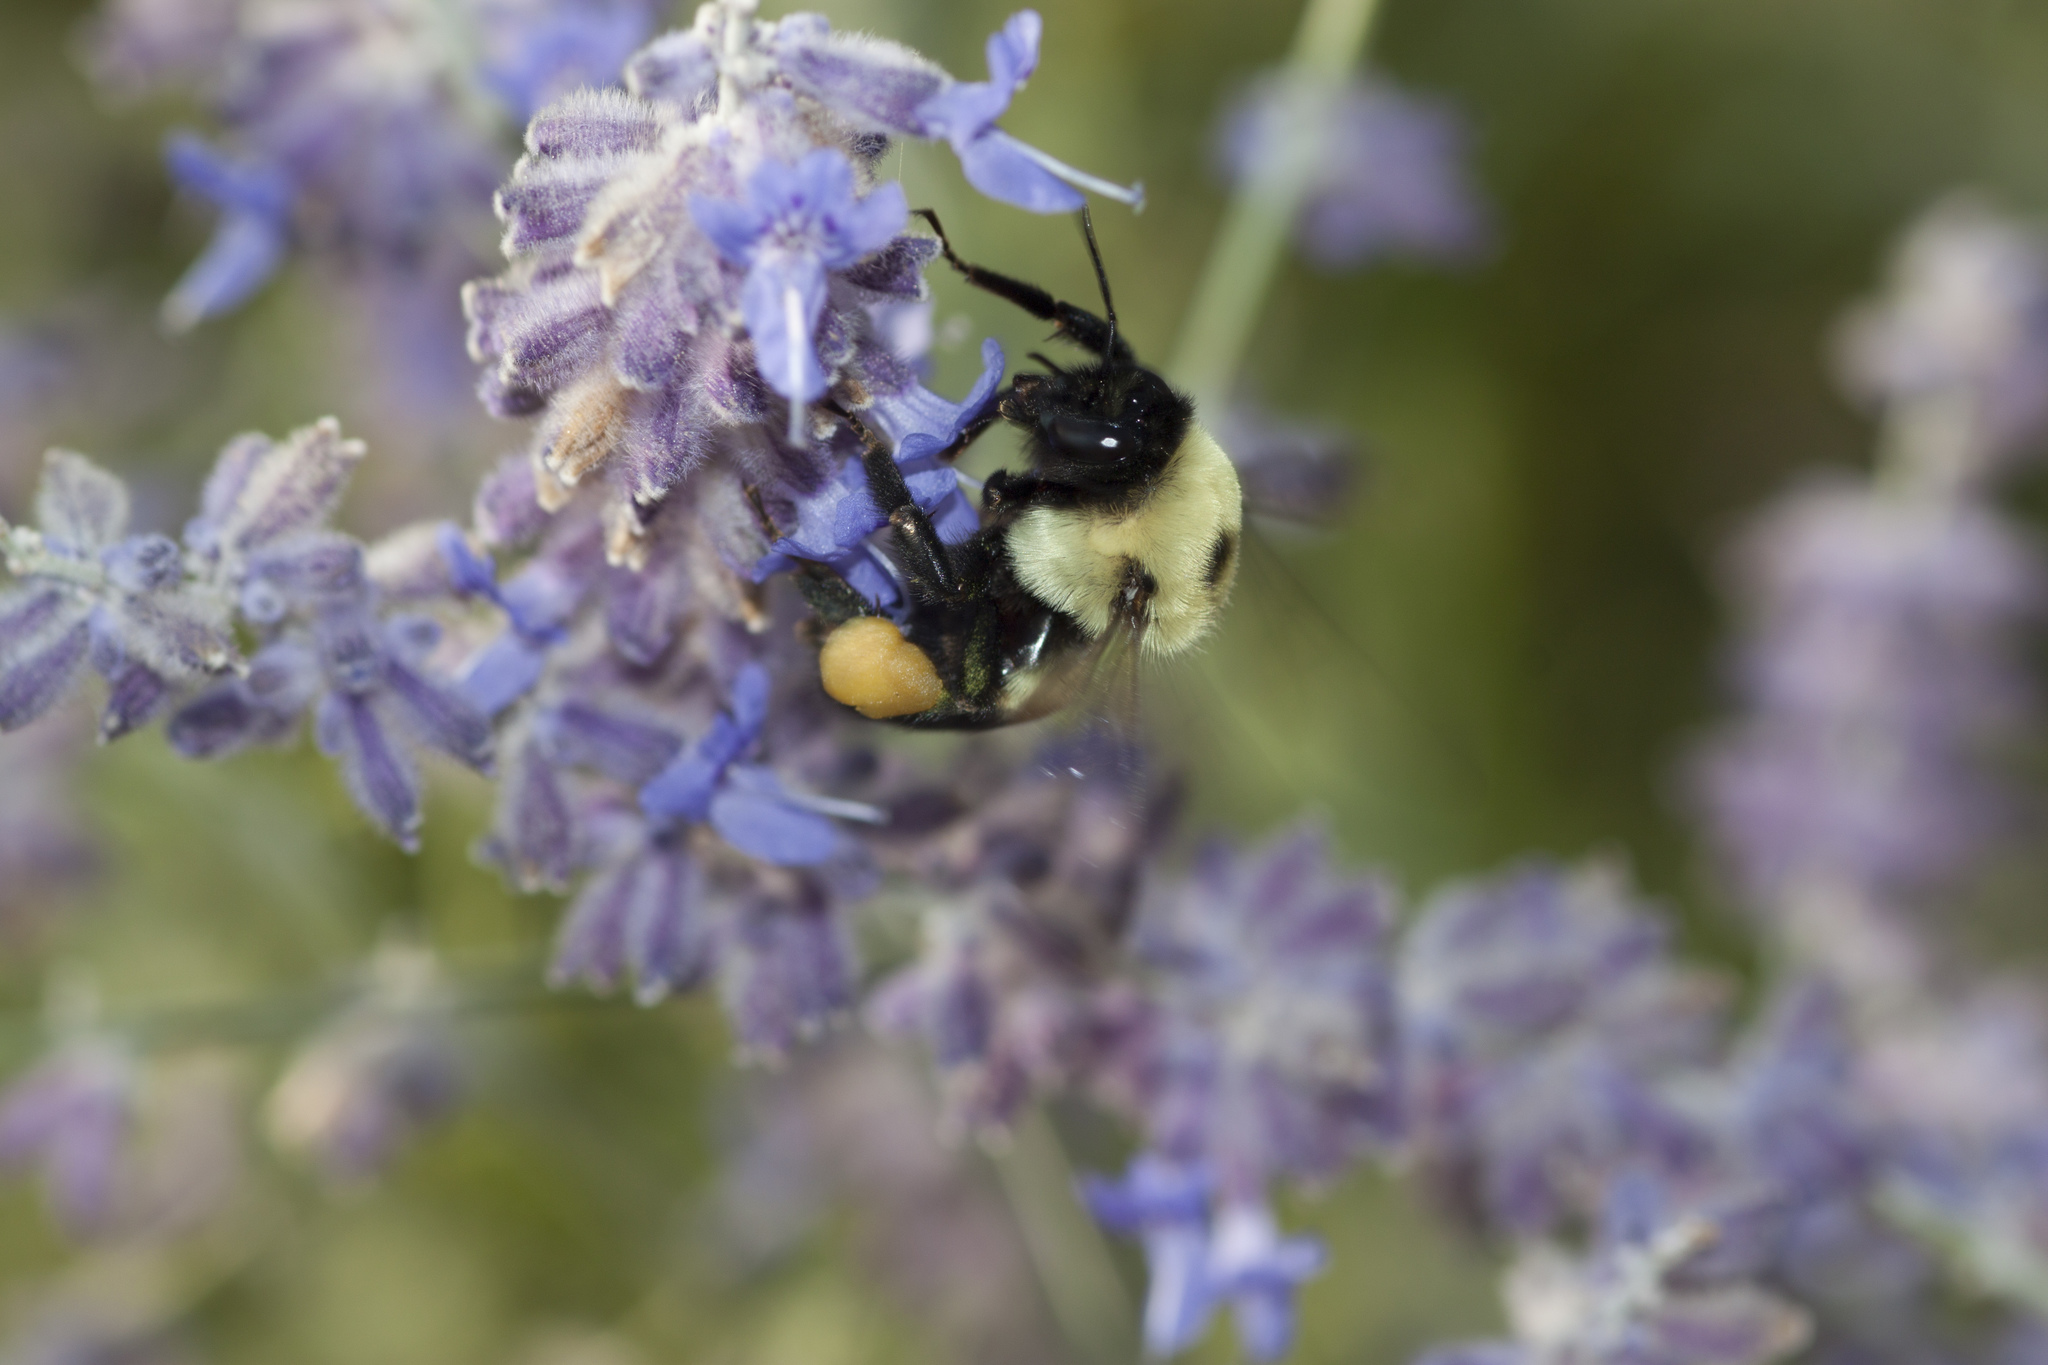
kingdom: Animalia
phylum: Arthropoda
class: Insecta
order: Hymenoptera
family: Apidae
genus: Bombus
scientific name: Bombus griseocollis
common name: Brown-belted bumble bee
